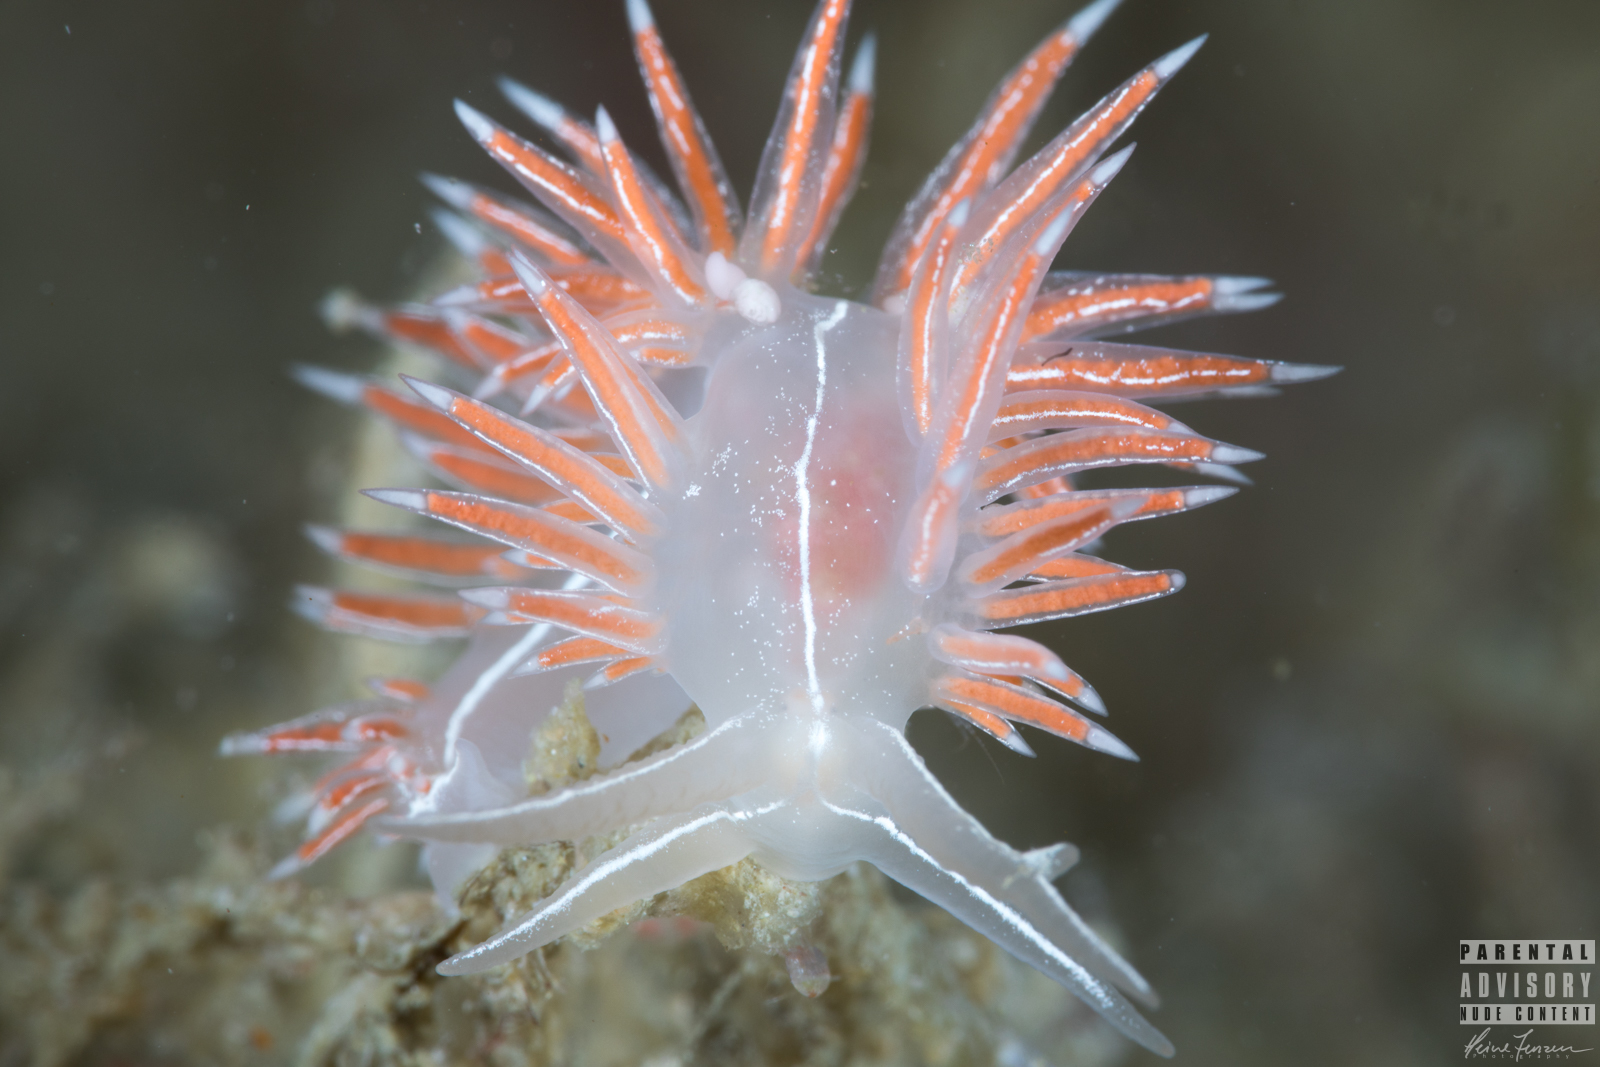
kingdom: Animalia
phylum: Mollusca
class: Gastropoda
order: Nudibranchia
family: Coryphellidae
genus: Coryphella
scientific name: Coryphella chriskaugei
